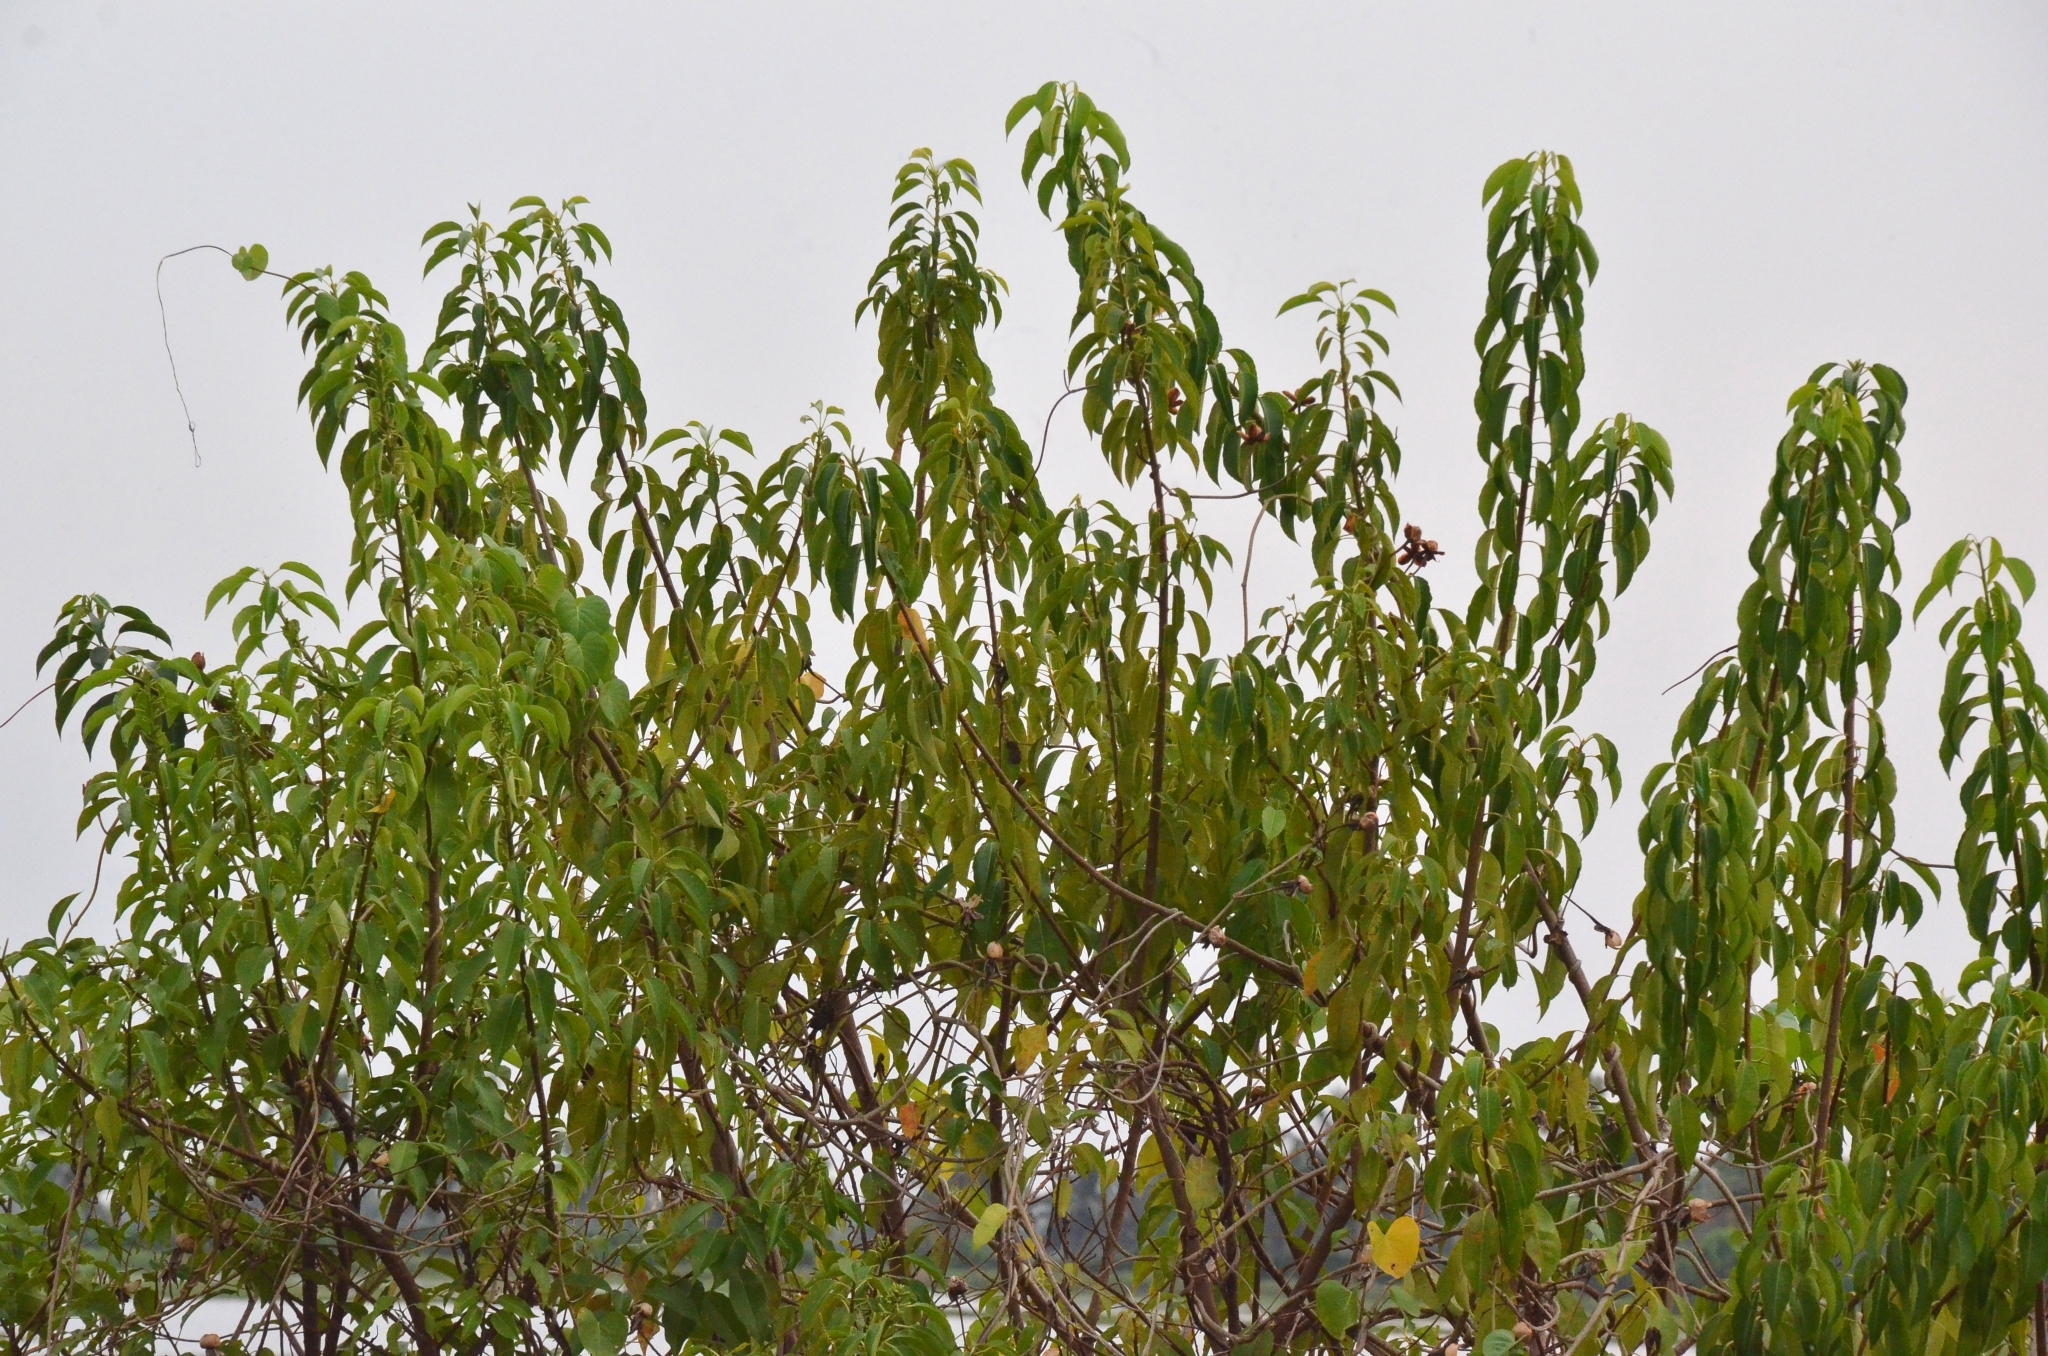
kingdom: Plantae
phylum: Tracheophyta
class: Magnoliopsida
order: Malpighiales
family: Euphorbiaceae
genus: Excoecaria
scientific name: Excoecaria agallocha
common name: River poisontree
